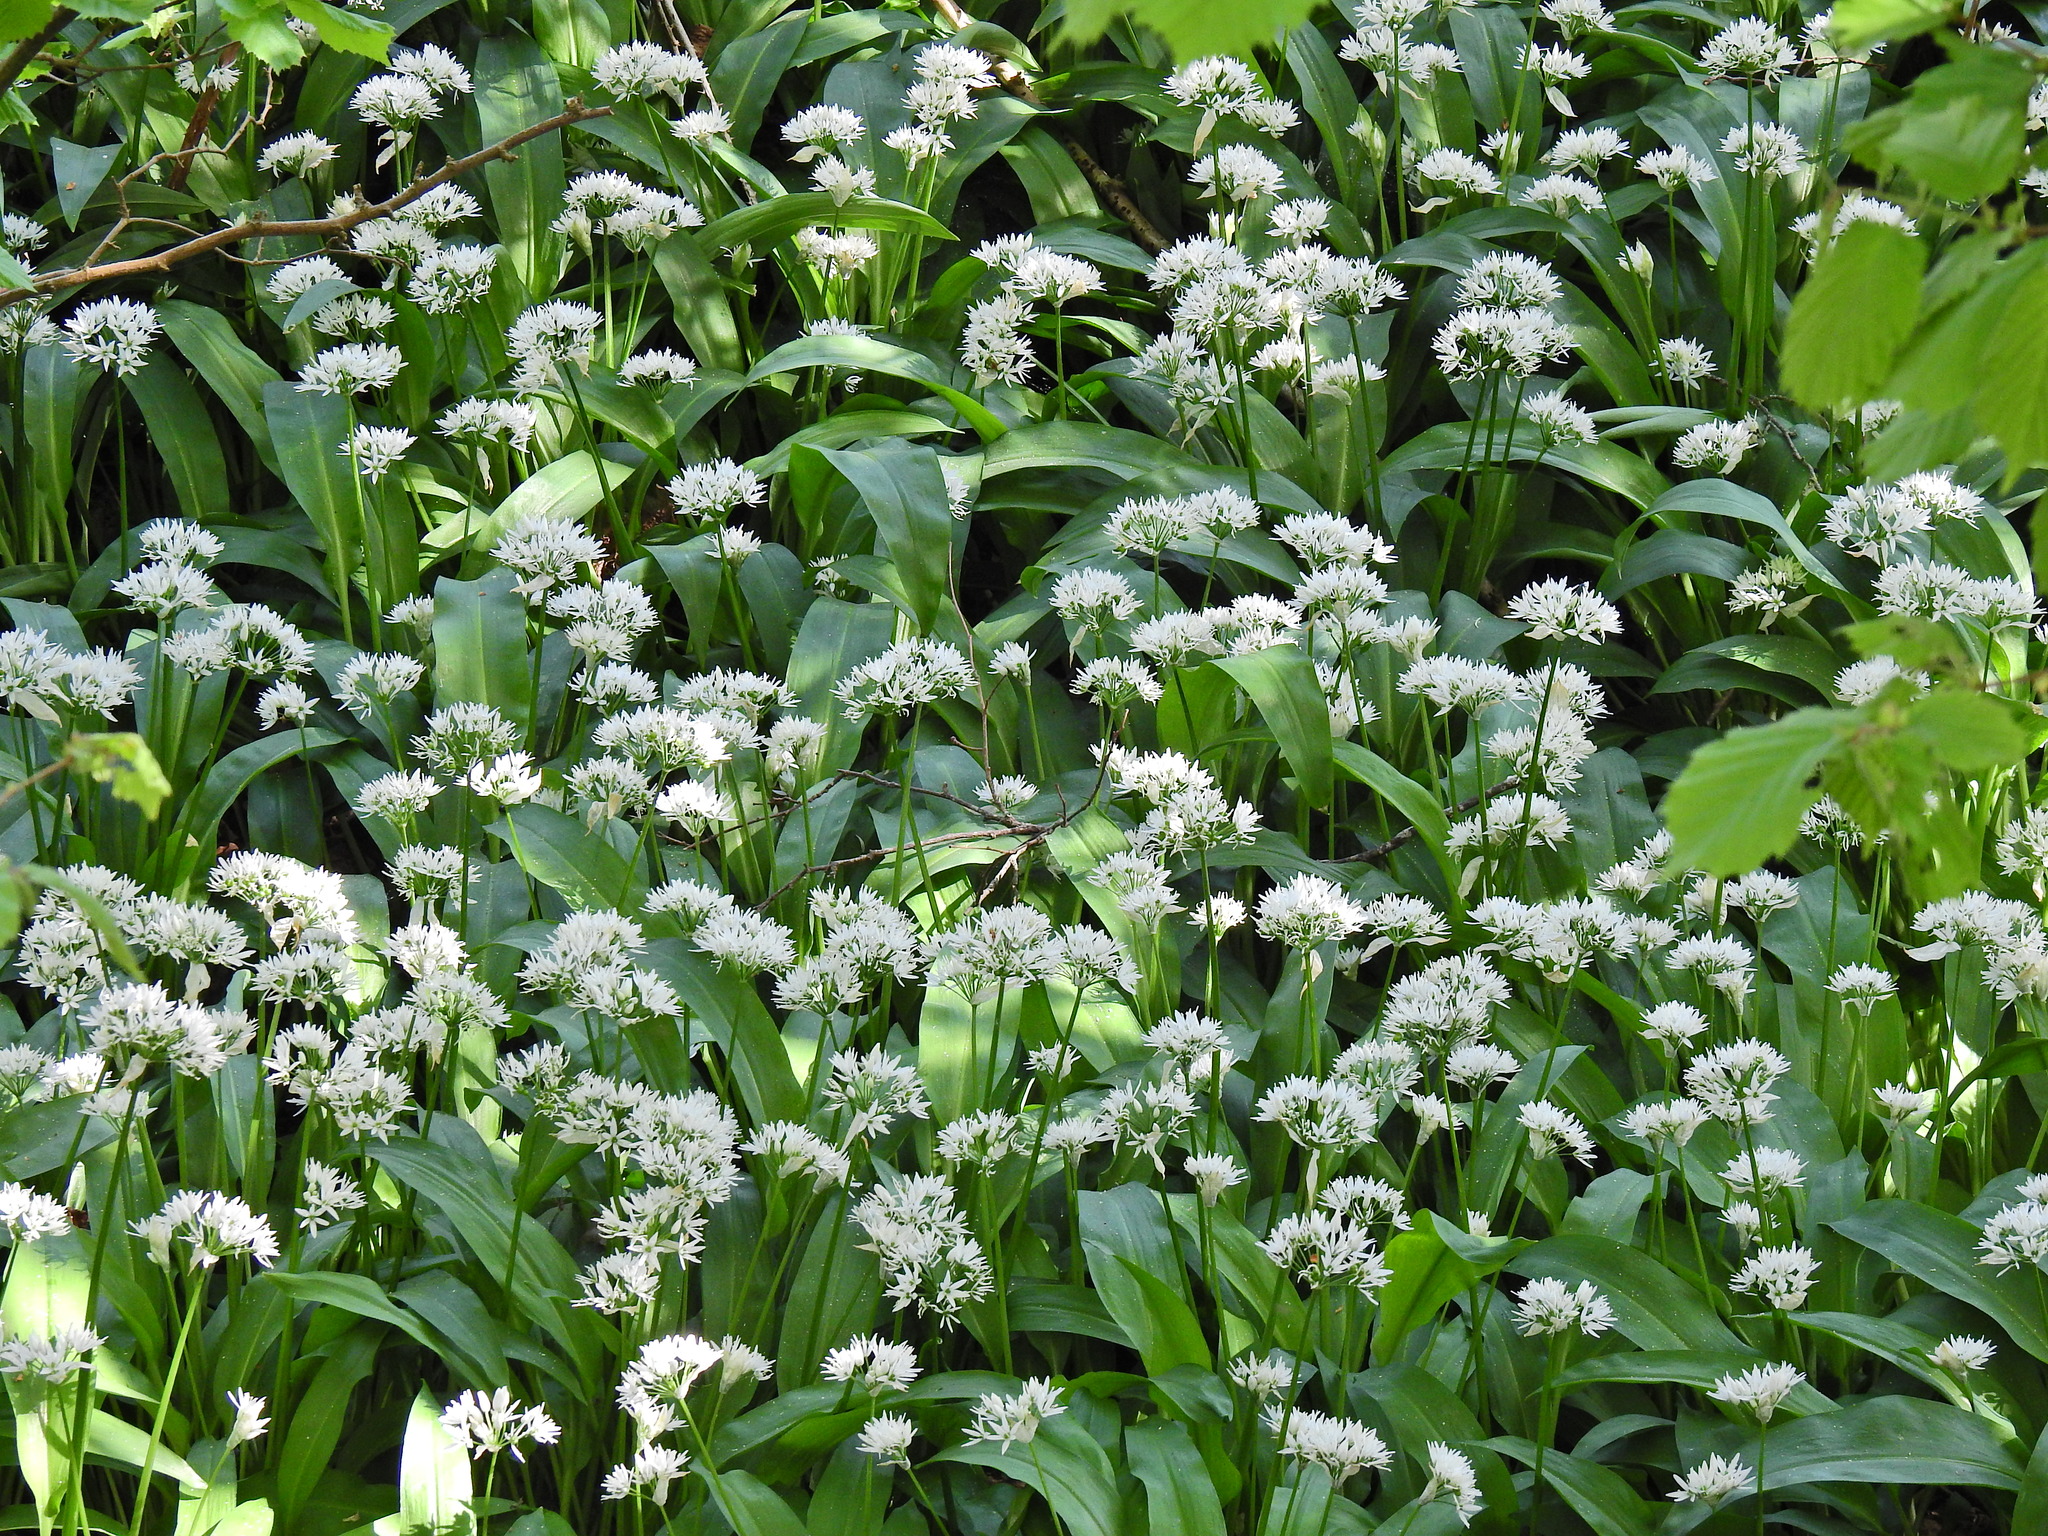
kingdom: Plantae
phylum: Tracheophyta
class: Liliopsida
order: Asparagales
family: Amaryllidaceae
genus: Allium
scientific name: Allium ursinum
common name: Ramsons
